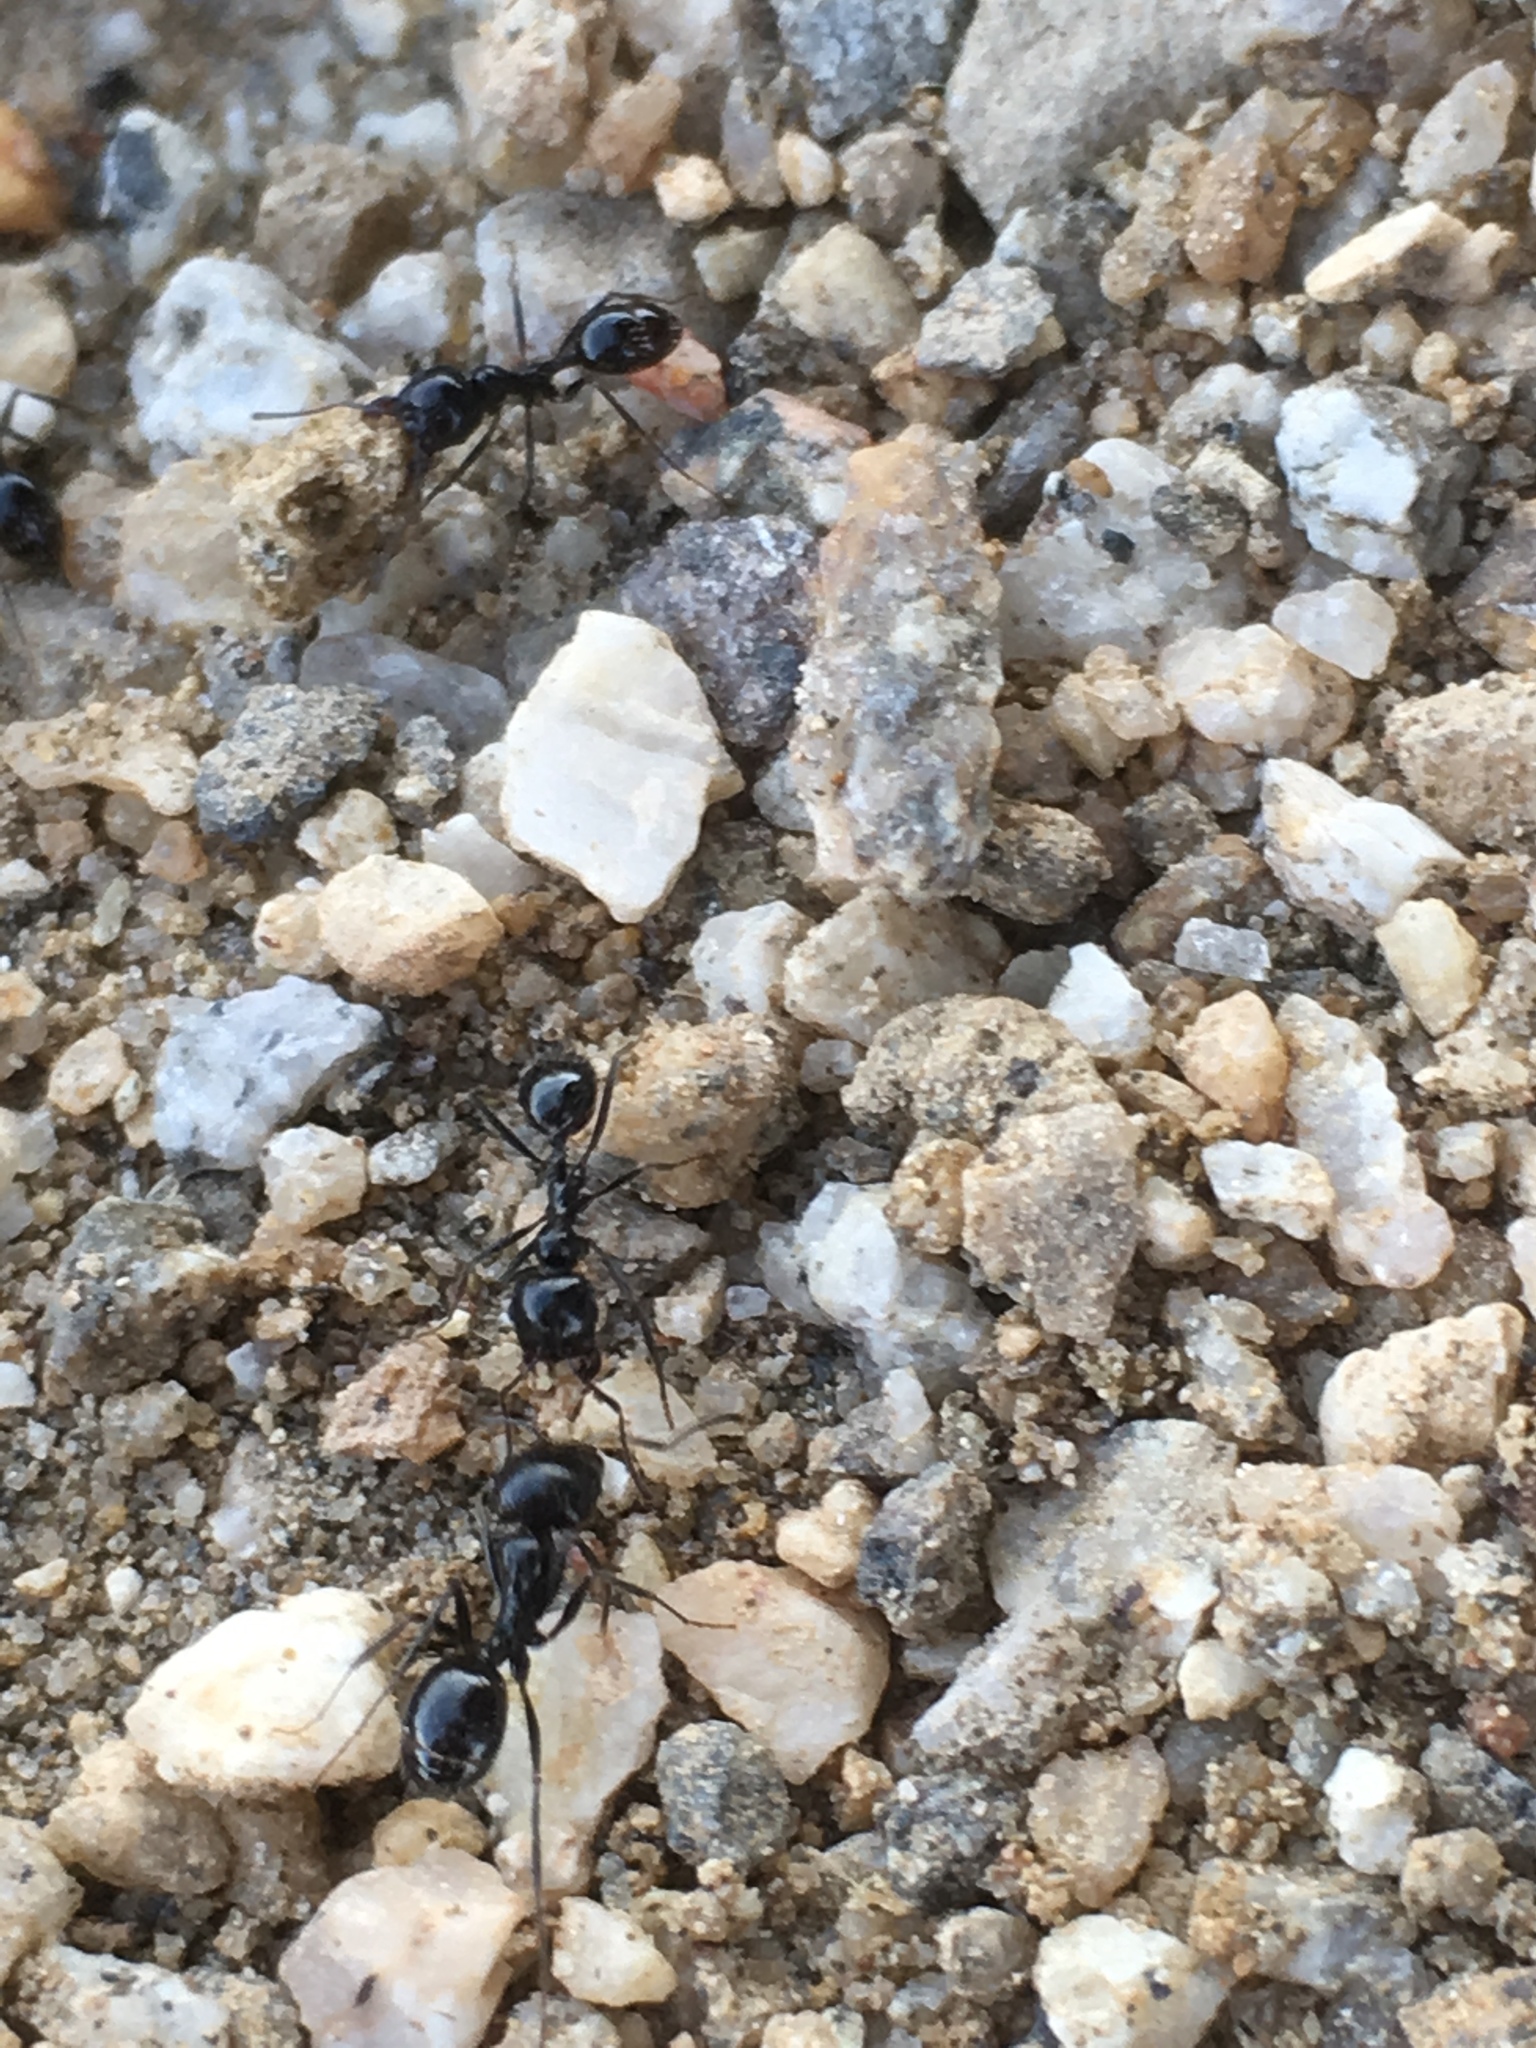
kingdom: Animalia
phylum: Arthropoda
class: Insecta
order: Hymenoptera
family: Formicidae
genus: Messor
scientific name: Messor pergandei
